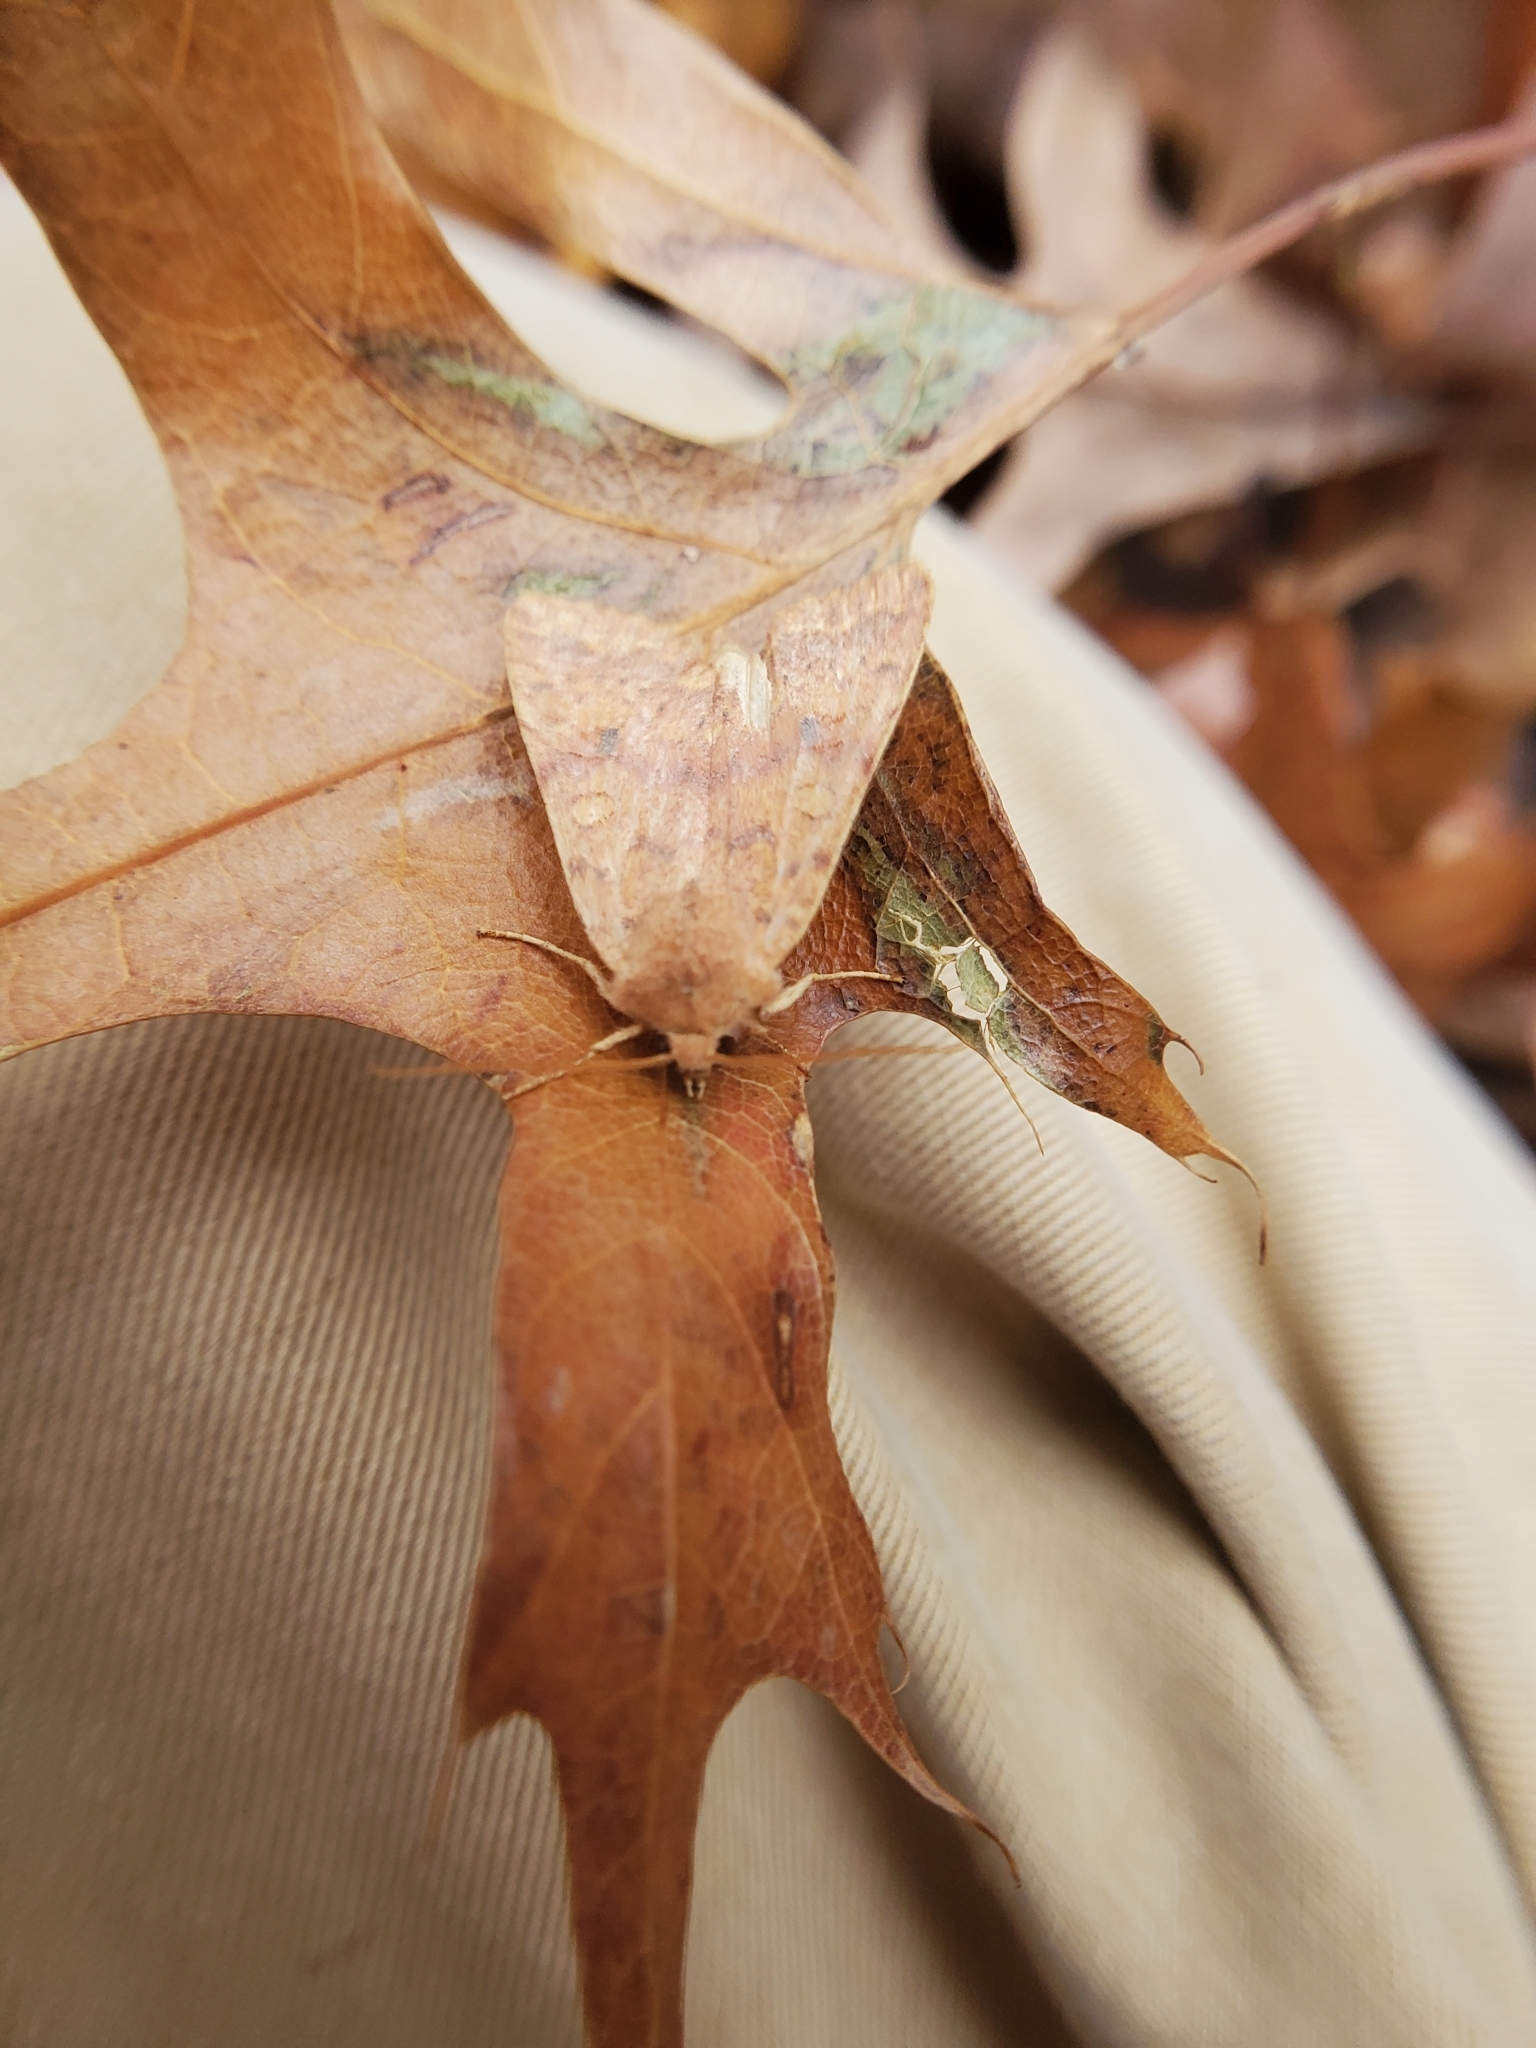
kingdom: Animalia
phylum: Arthropoda
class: Insecta
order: Lepidoptera
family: Noctuidae
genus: Agrochola
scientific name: Agrochola bicolorago
